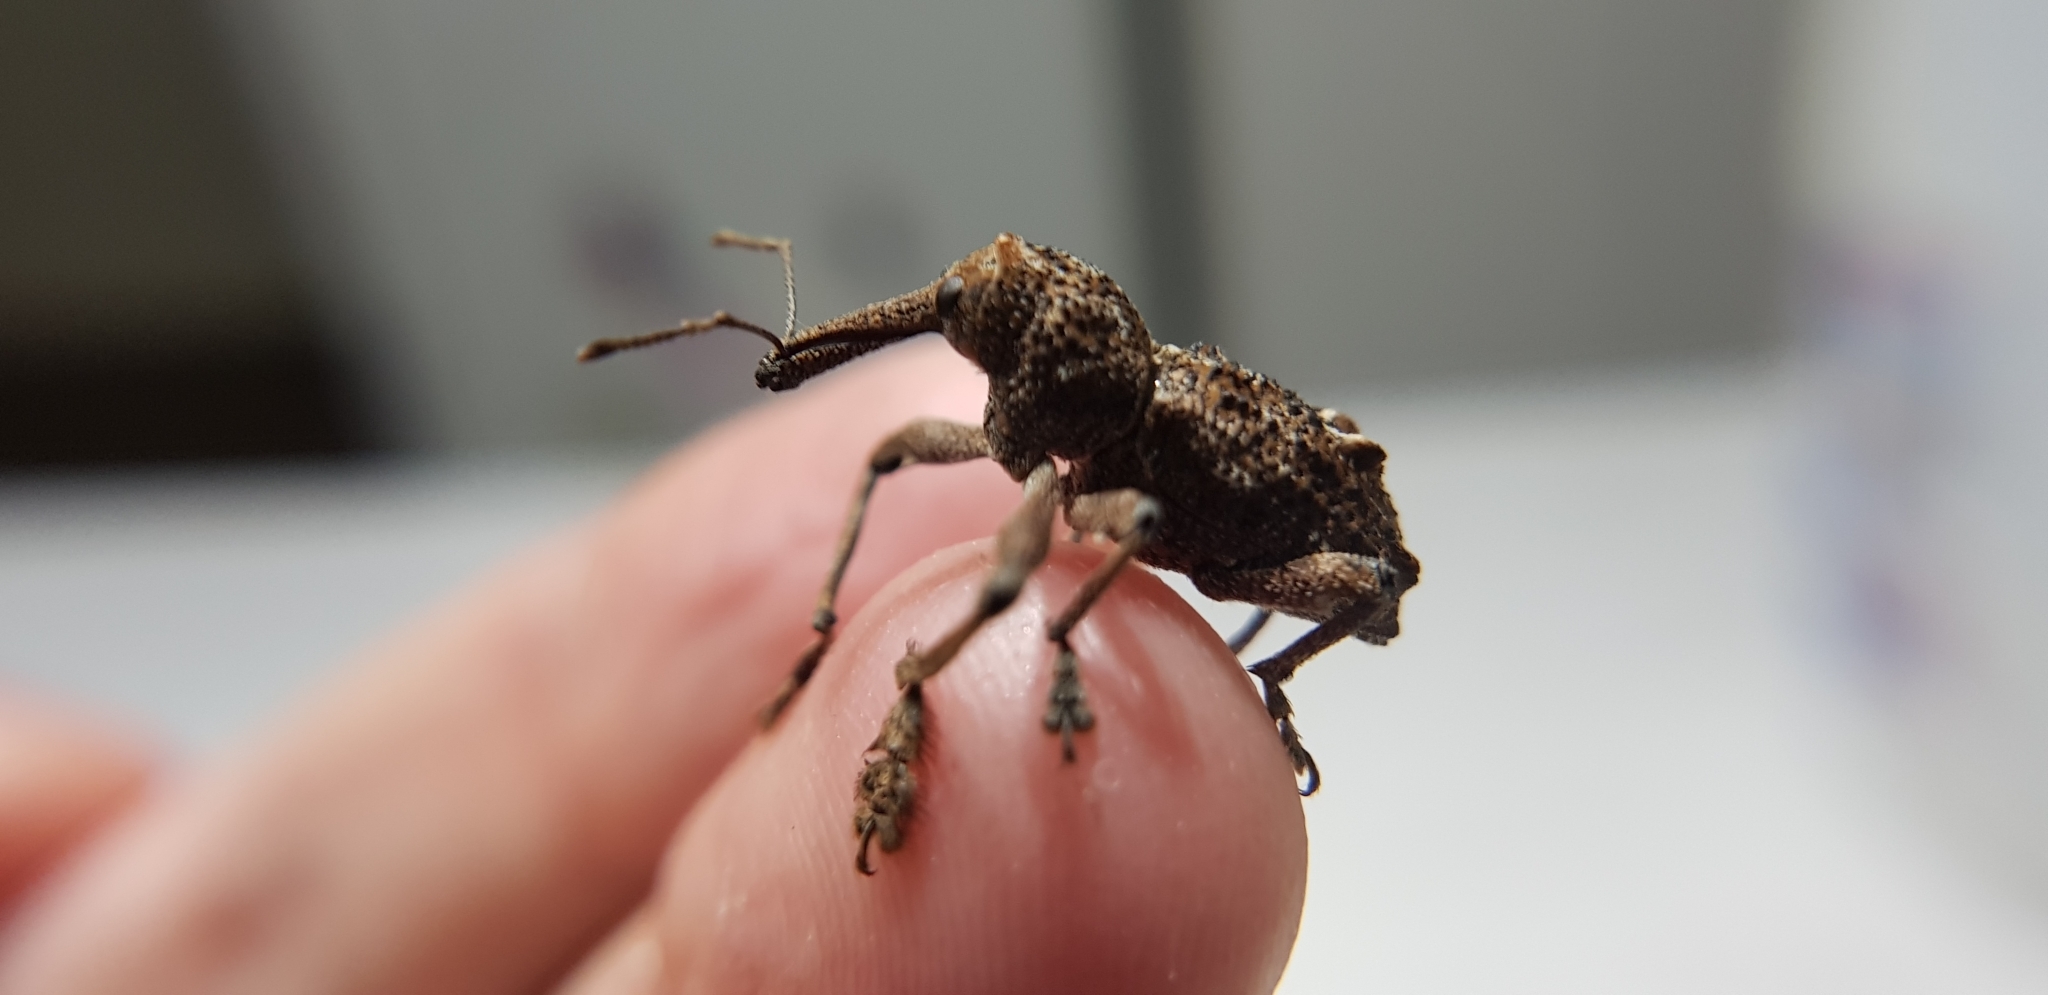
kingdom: Animalia
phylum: Arthropoda
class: Insecta
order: Coleoptera
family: Curculionidae
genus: Orthorhinus
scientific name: Orthorhinus cylindrirostris
